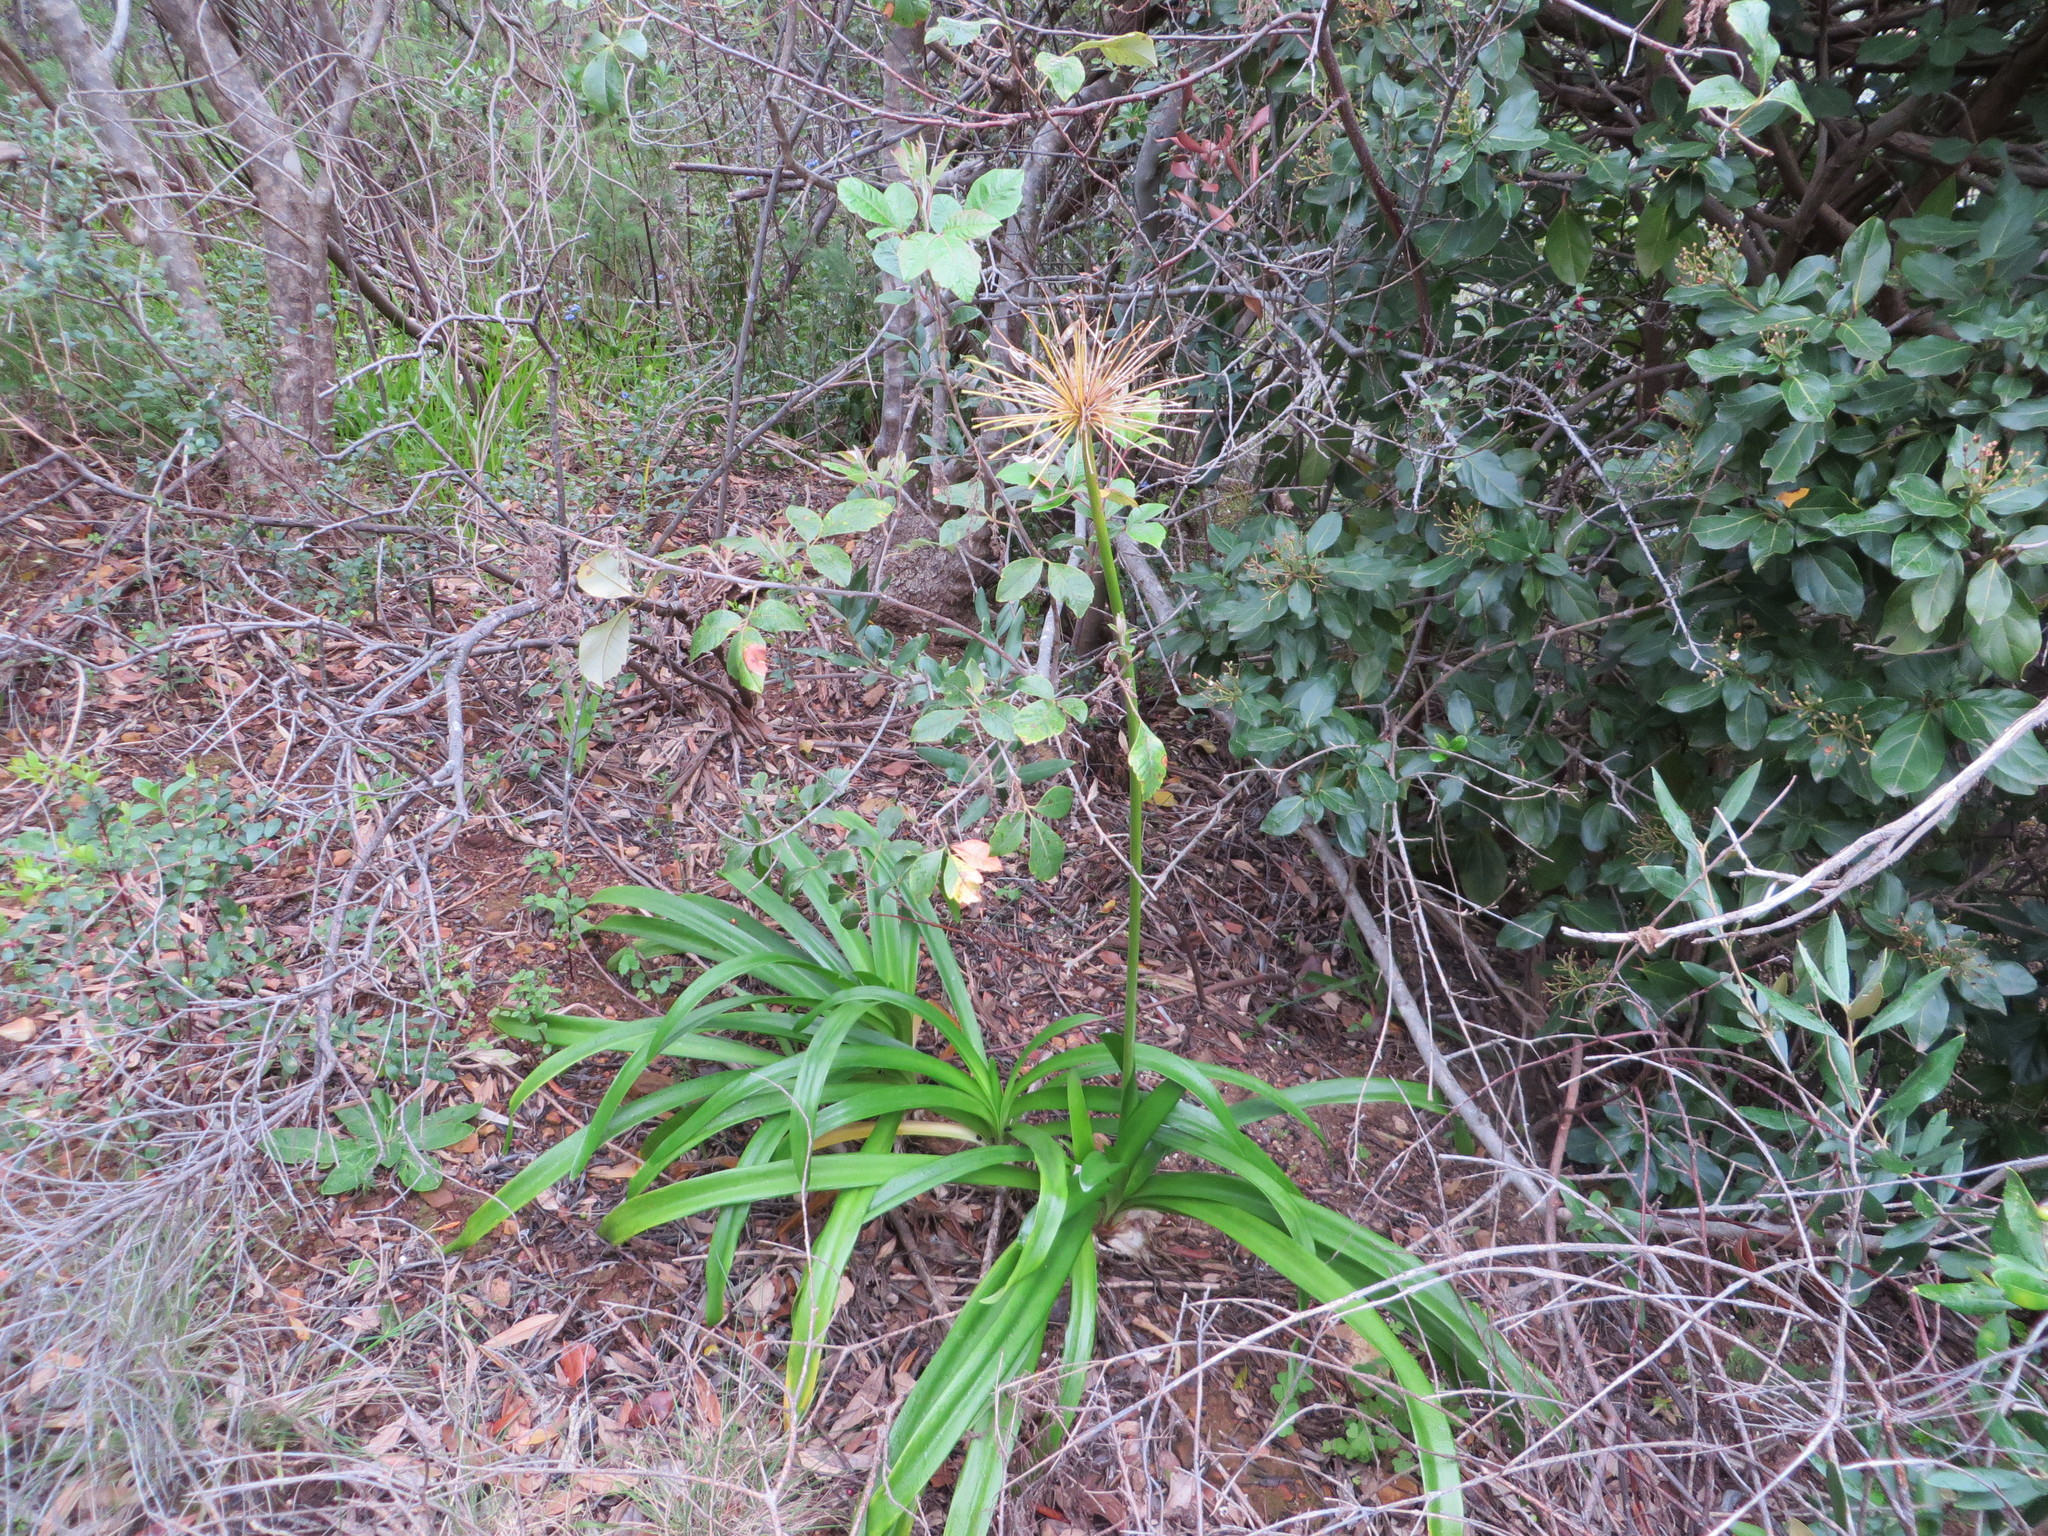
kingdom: Plantae
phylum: Tracheophyta
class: Liliopsida
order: Asparagales
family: Amaryllidaceae
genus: Agapanthus
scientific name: Agapanthus praecox
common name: African-lily
